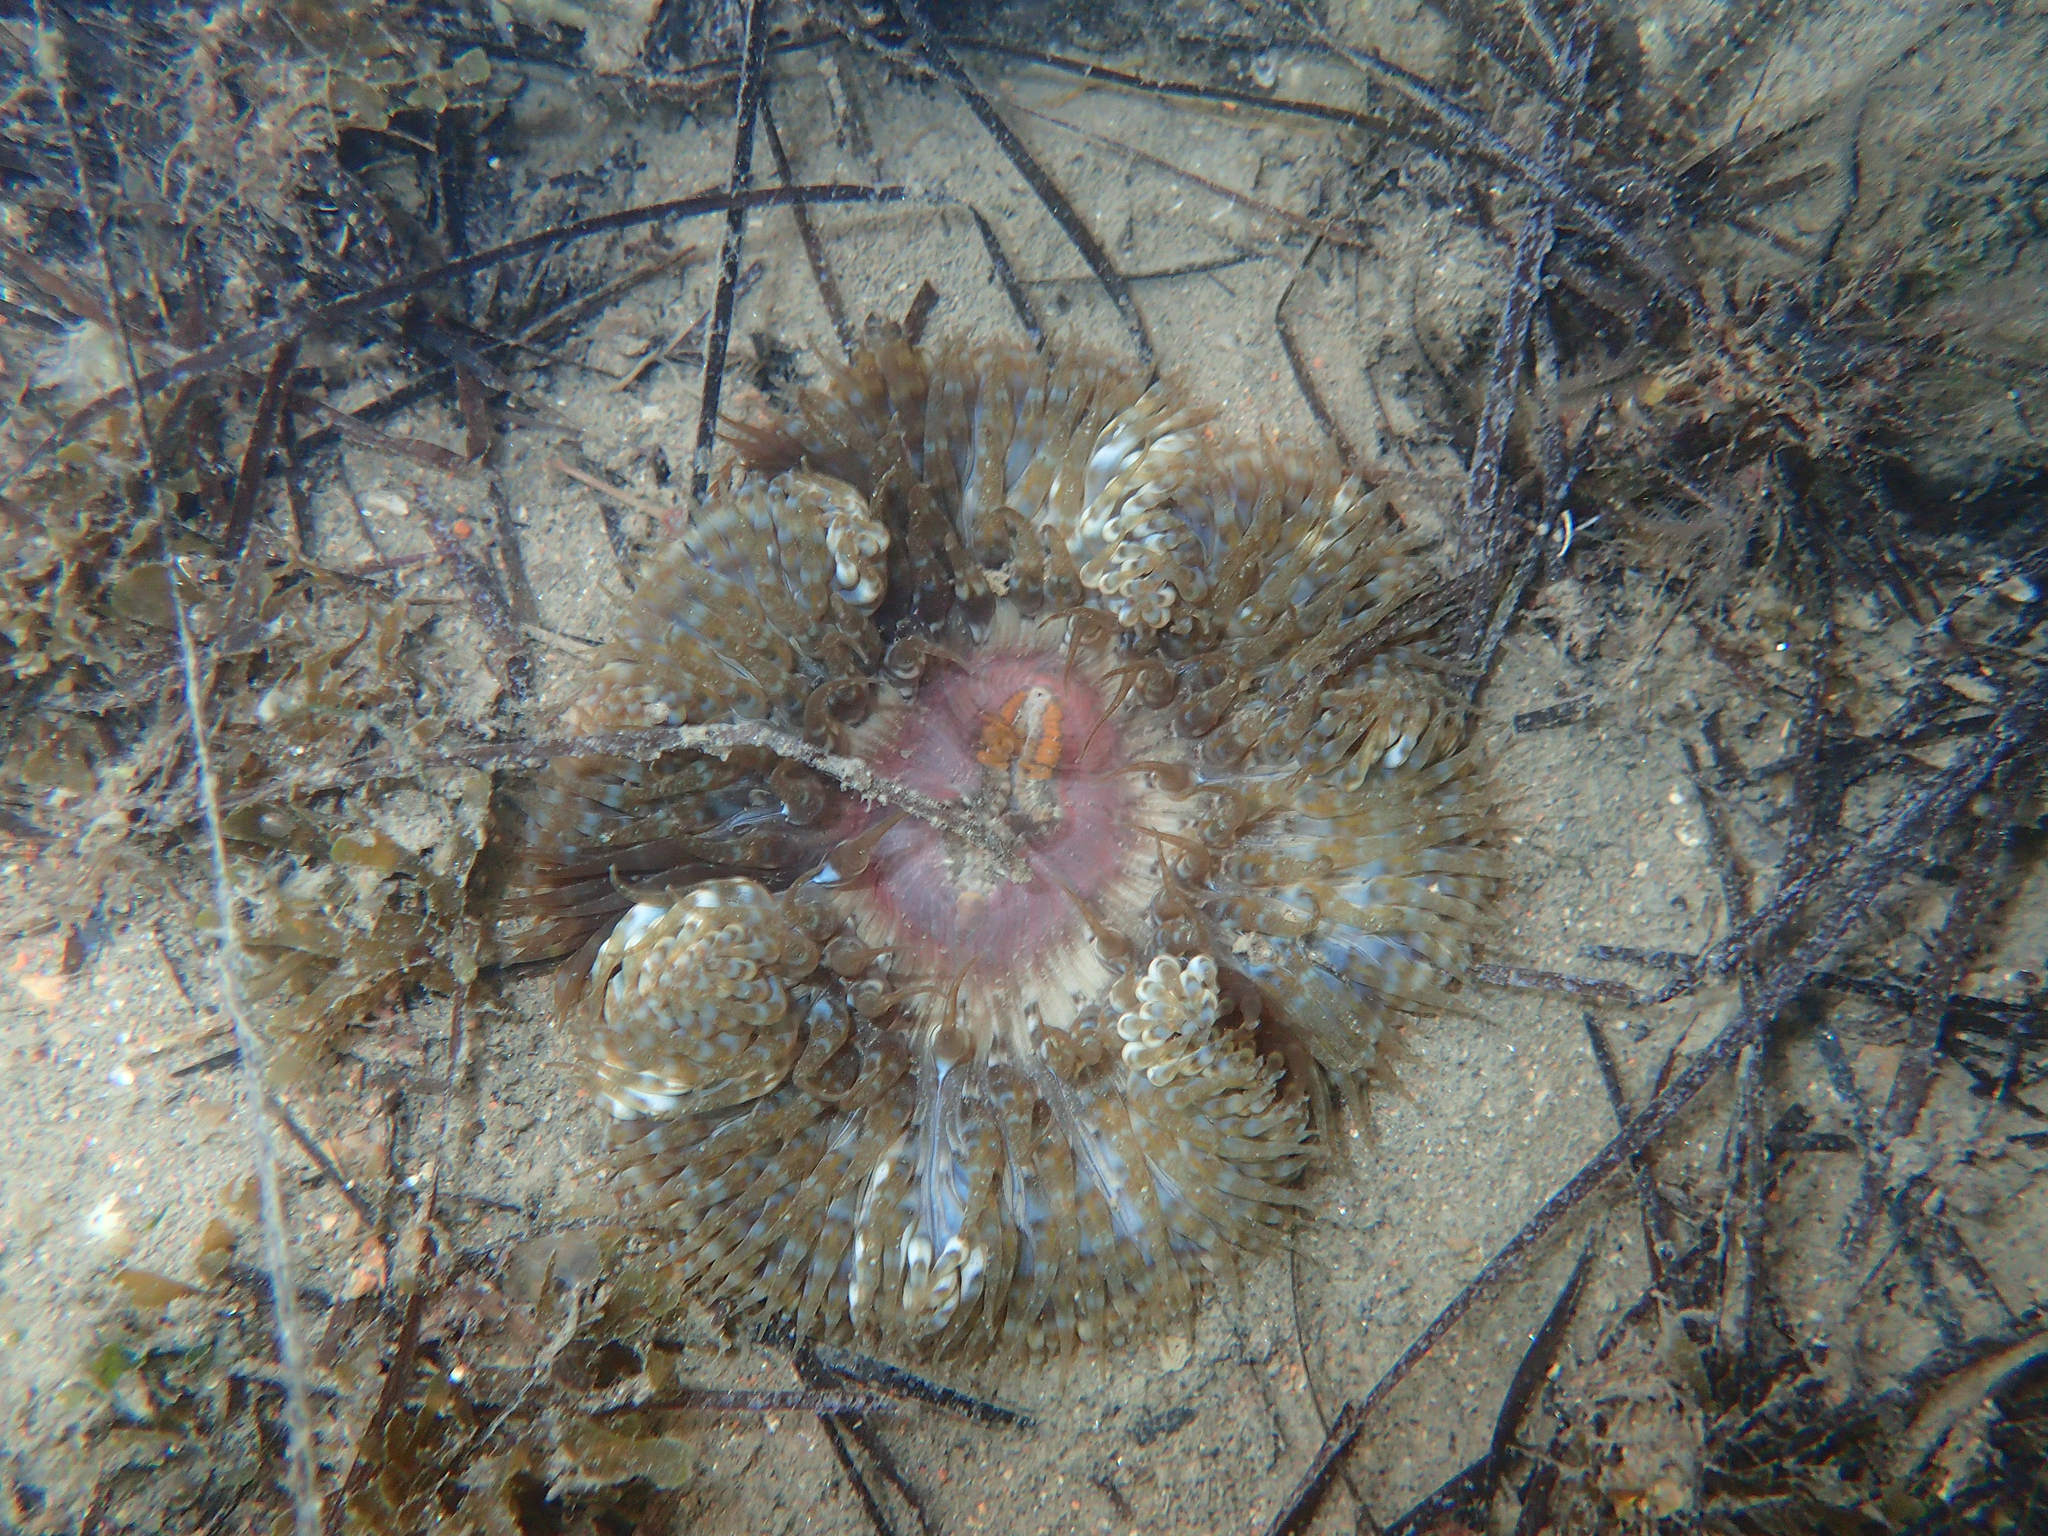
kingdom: Animalia
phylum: Cnidaria
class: Anthozoa
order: Actiniaria
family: Sagartiidae
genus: Cereus
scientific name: Cereus pedunculatus
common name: Daisy anemone
